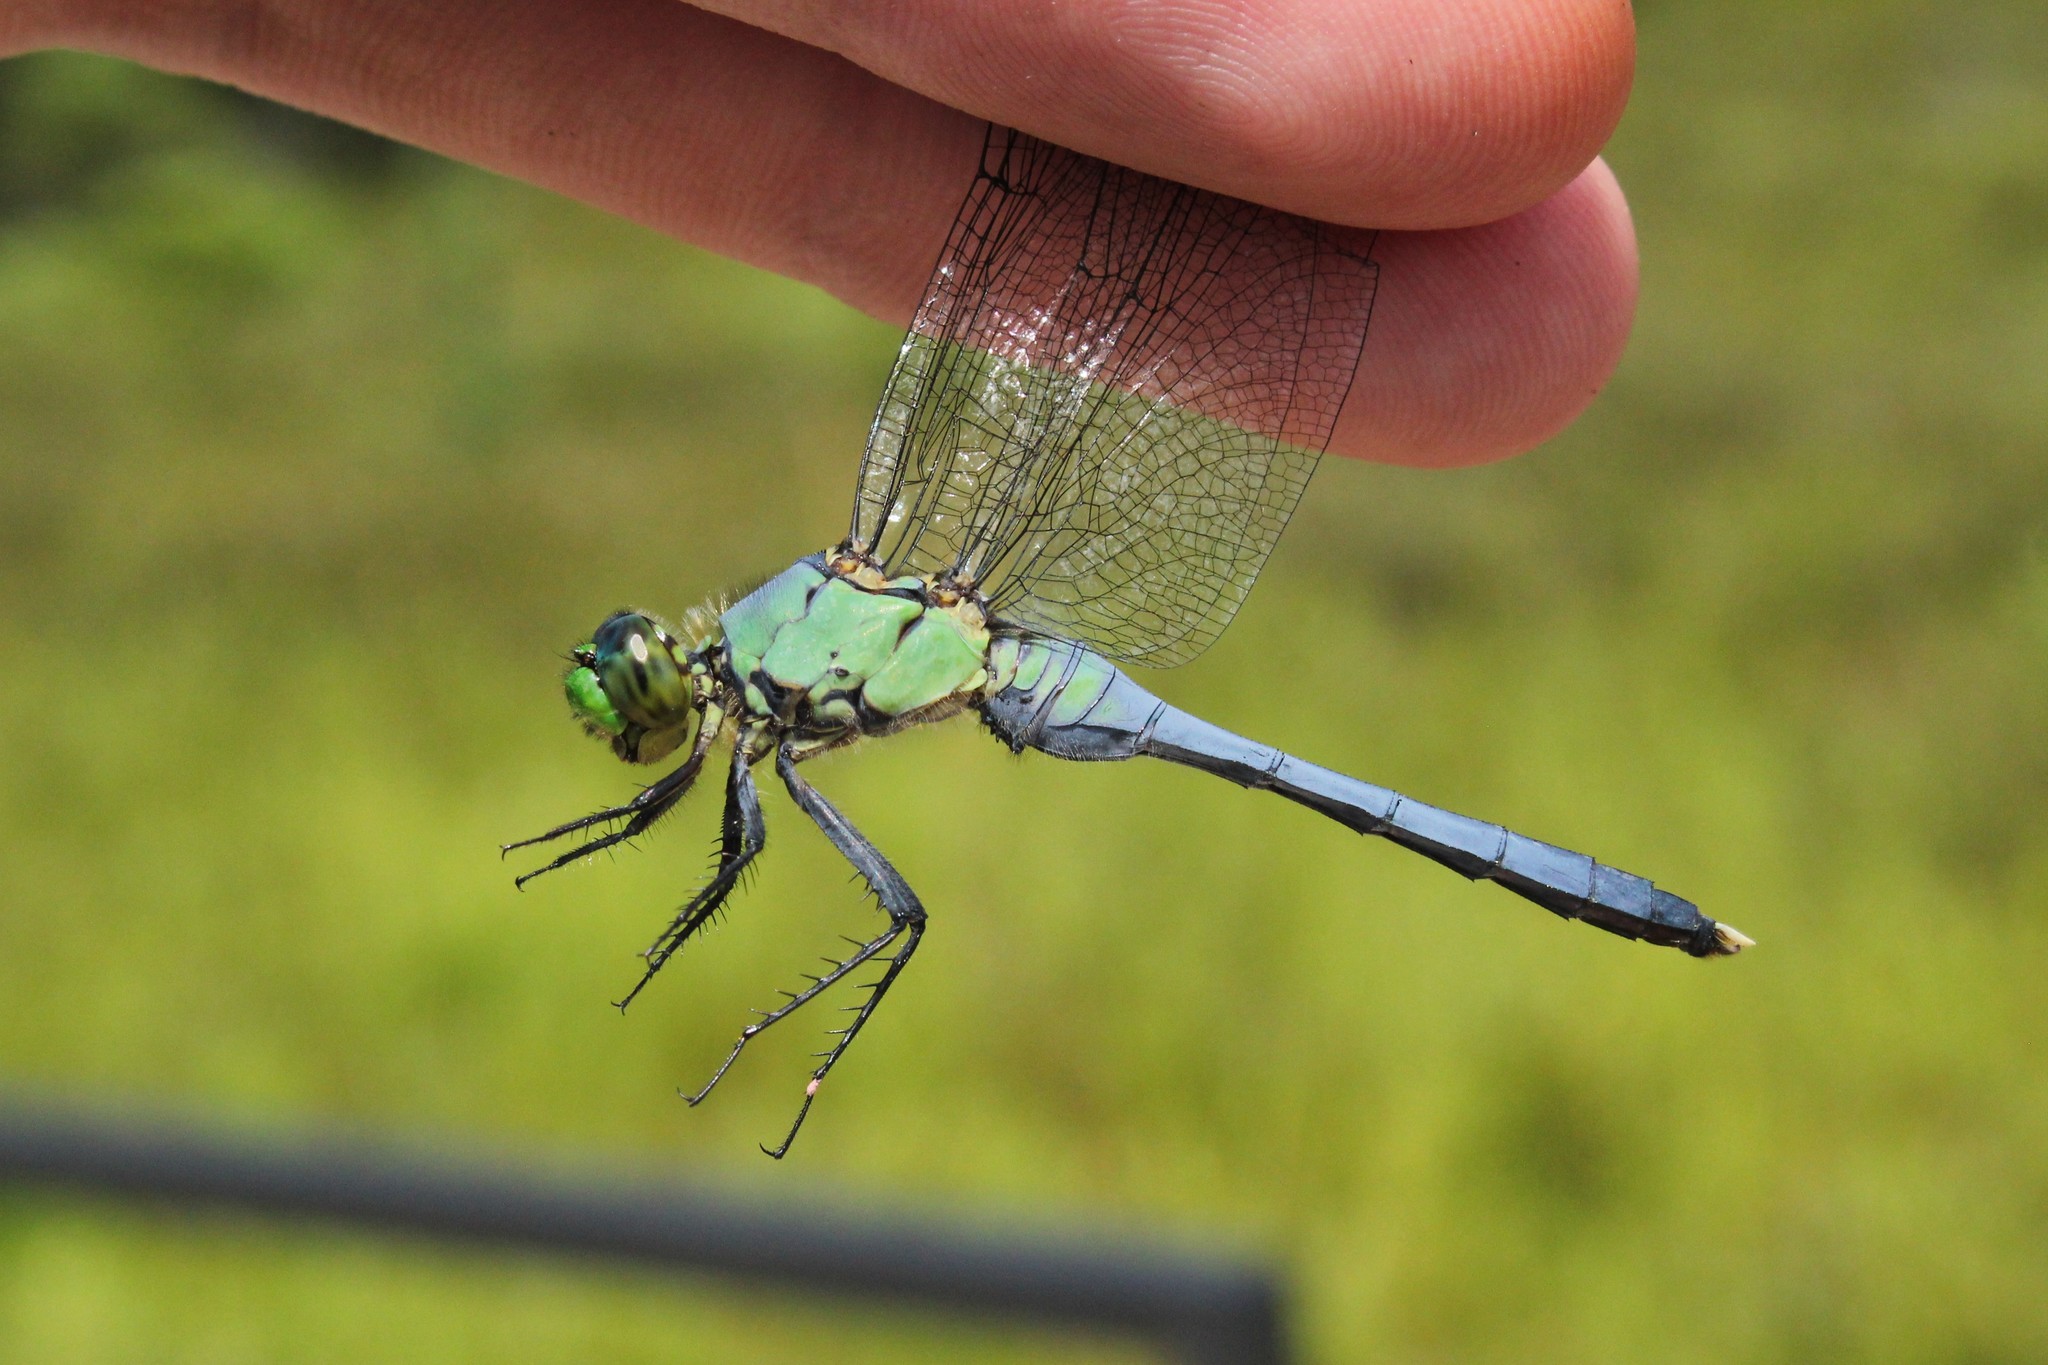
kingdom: Animalia
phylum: Arthropoda
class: Insecta
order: Odonata
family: Libellulidae
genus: Erythemis
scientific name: Erythemis simplicicollis
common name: Eastern pondhawk
